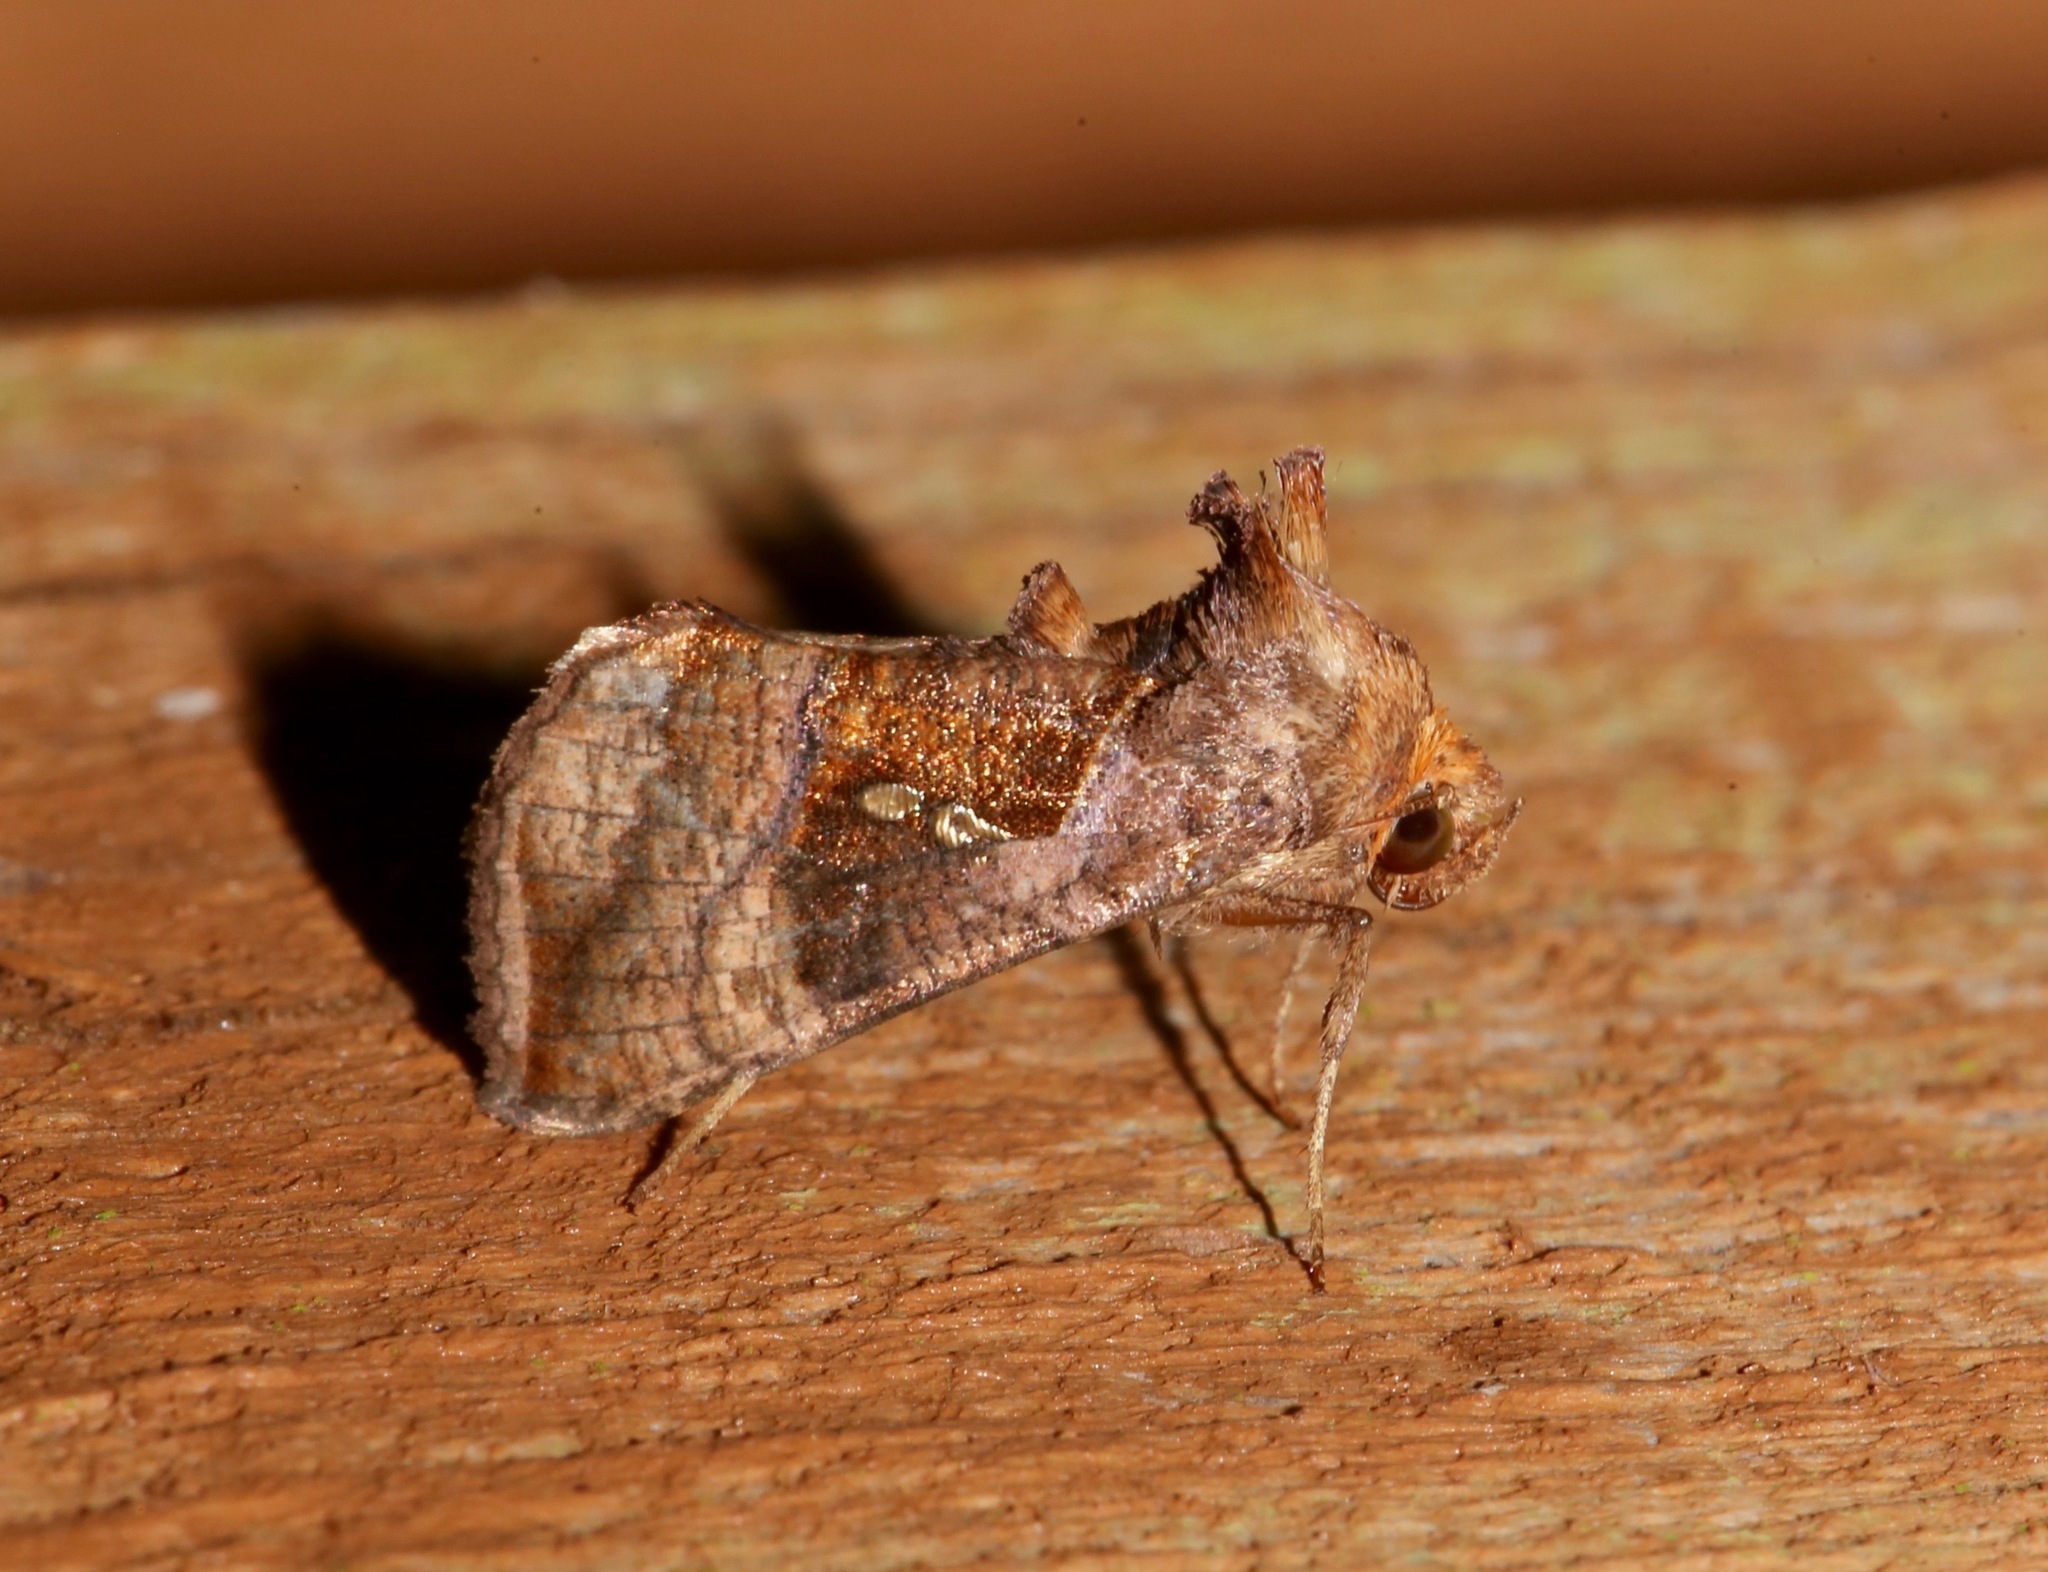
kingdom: Animalia
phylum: Arthropoda
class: Insecta
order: Lepidoptera
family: Noctuidae
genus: Enigmogramma
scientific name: Enigmogramma basigera
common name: Pink-washed looper moth
